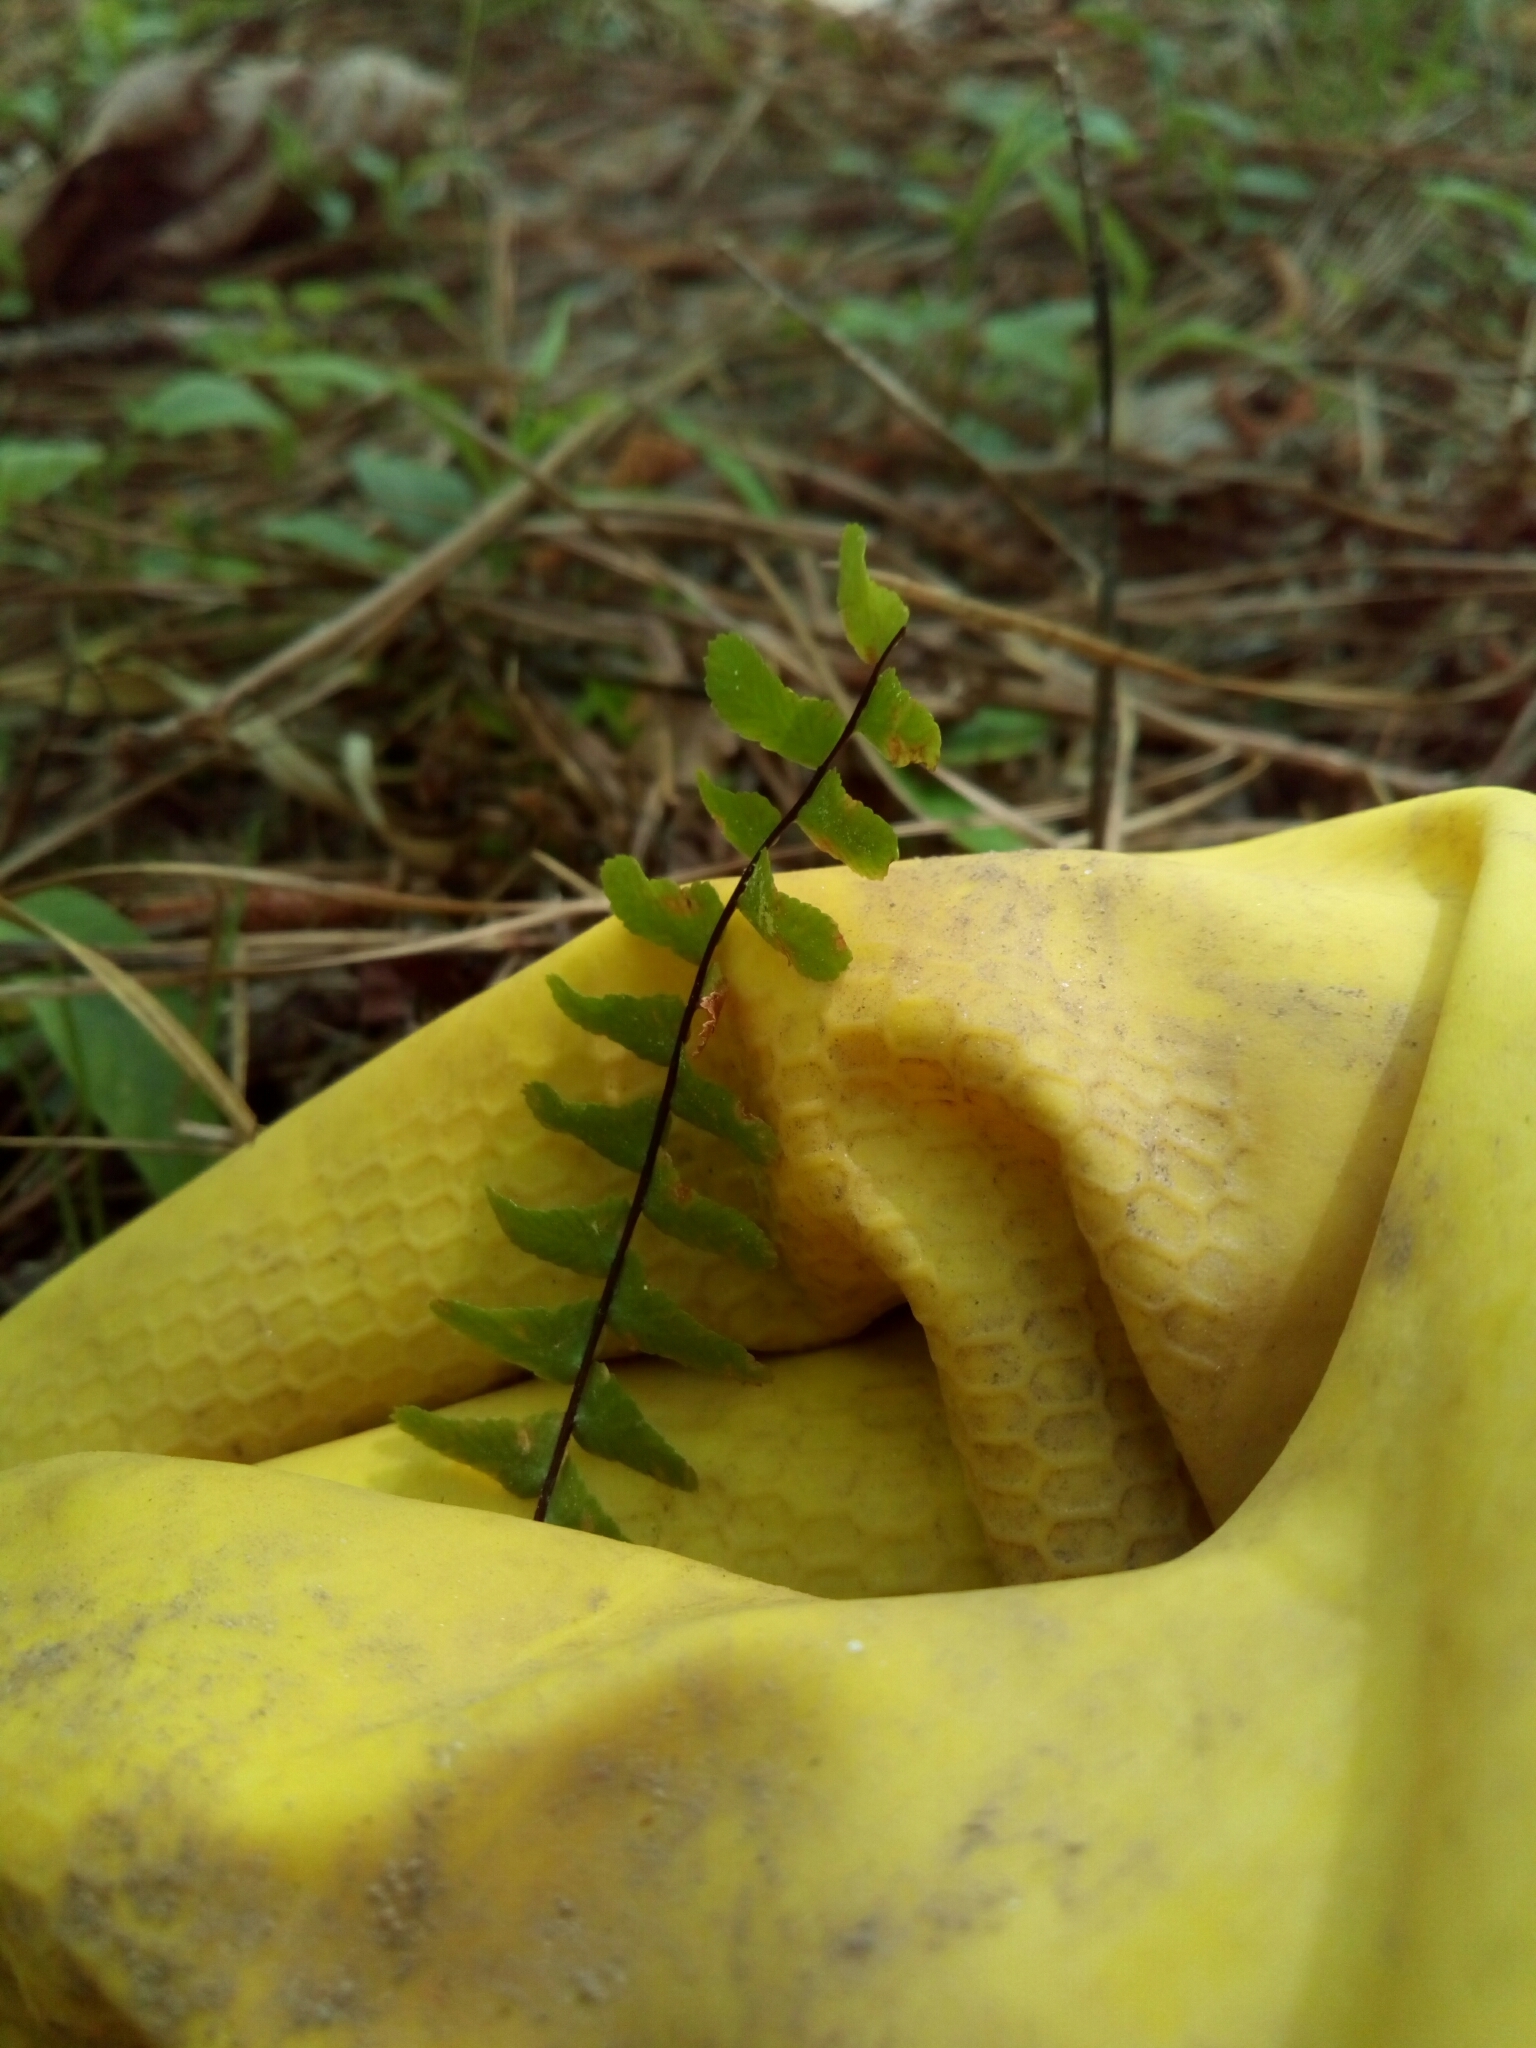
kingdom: Plantae
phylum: Tracheophyta
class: Polypodiopsida
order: Polypodiales
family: Aspleniaceae
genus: Asplenium
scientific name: Asplenium platyneuron
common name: Ebony spleenwort
